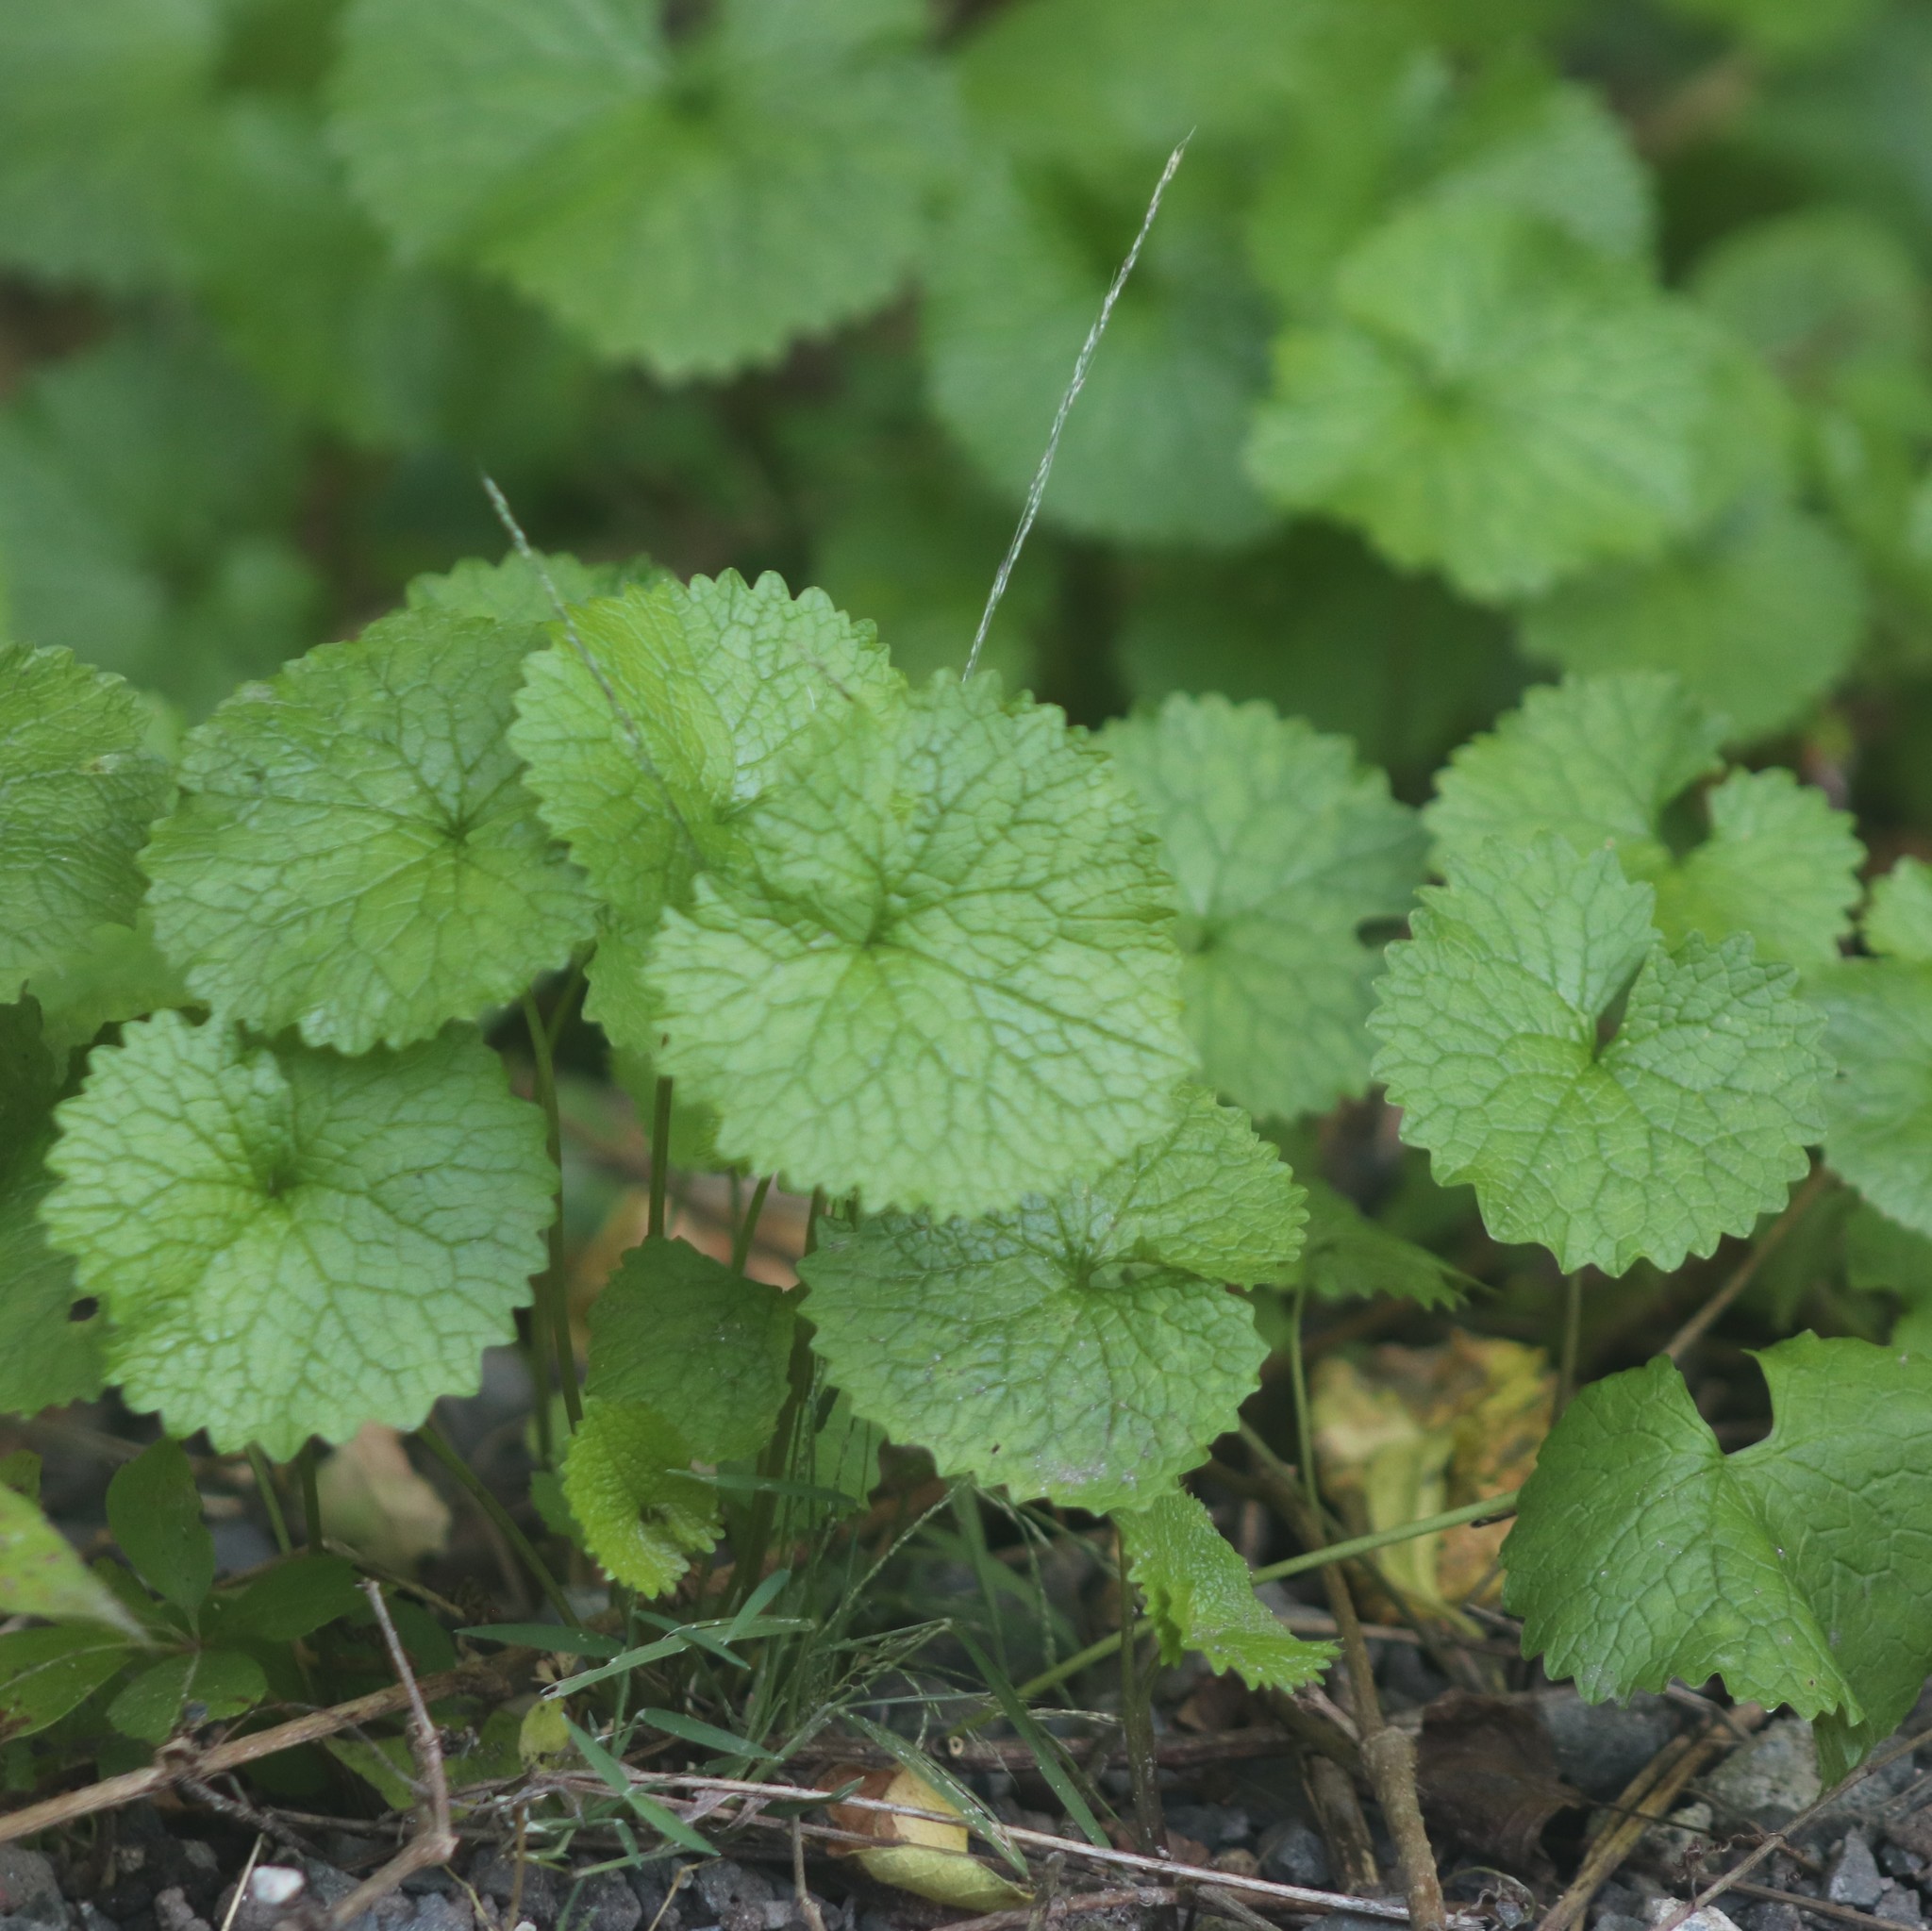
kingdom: Plantae
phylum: Tracheophyta
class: Magnoliopsida
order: Brassicales
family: Brassicaceae
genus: Alliaria
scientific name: Alliaria petiolata
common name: Garlic mustard
